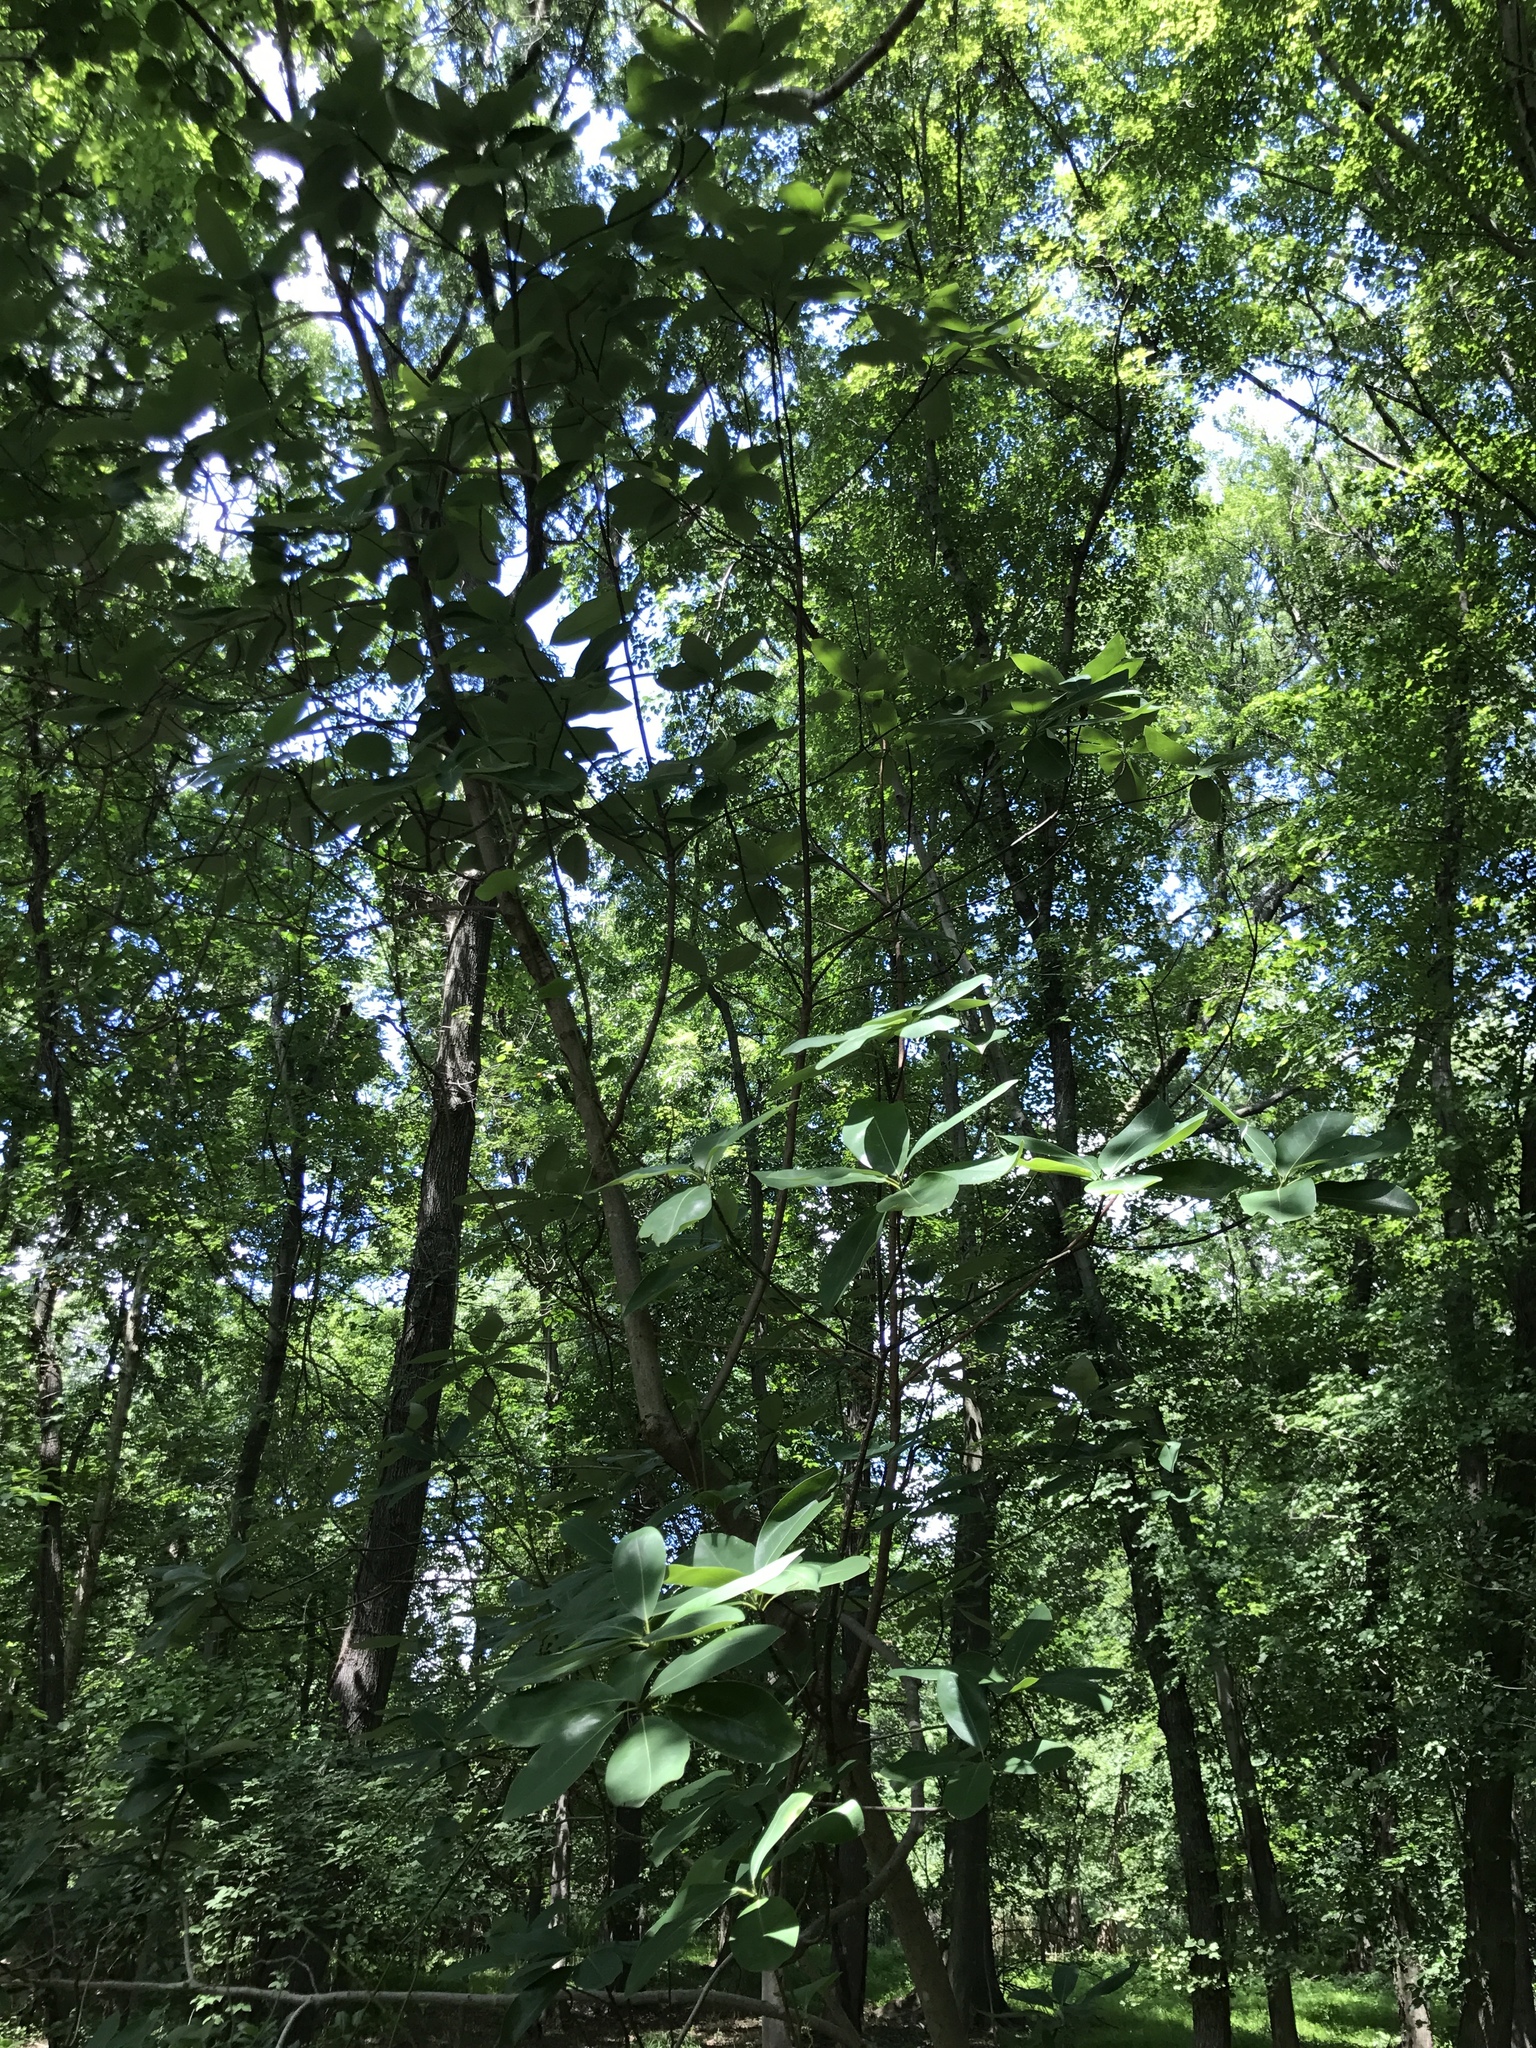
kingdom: Plantae
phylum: Tracheophyta
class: Magnoliopsida
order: Magnoliales
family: Magnoliaceae
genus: Magnolia
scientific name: Magnolia virginiana
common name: Swamp bay
